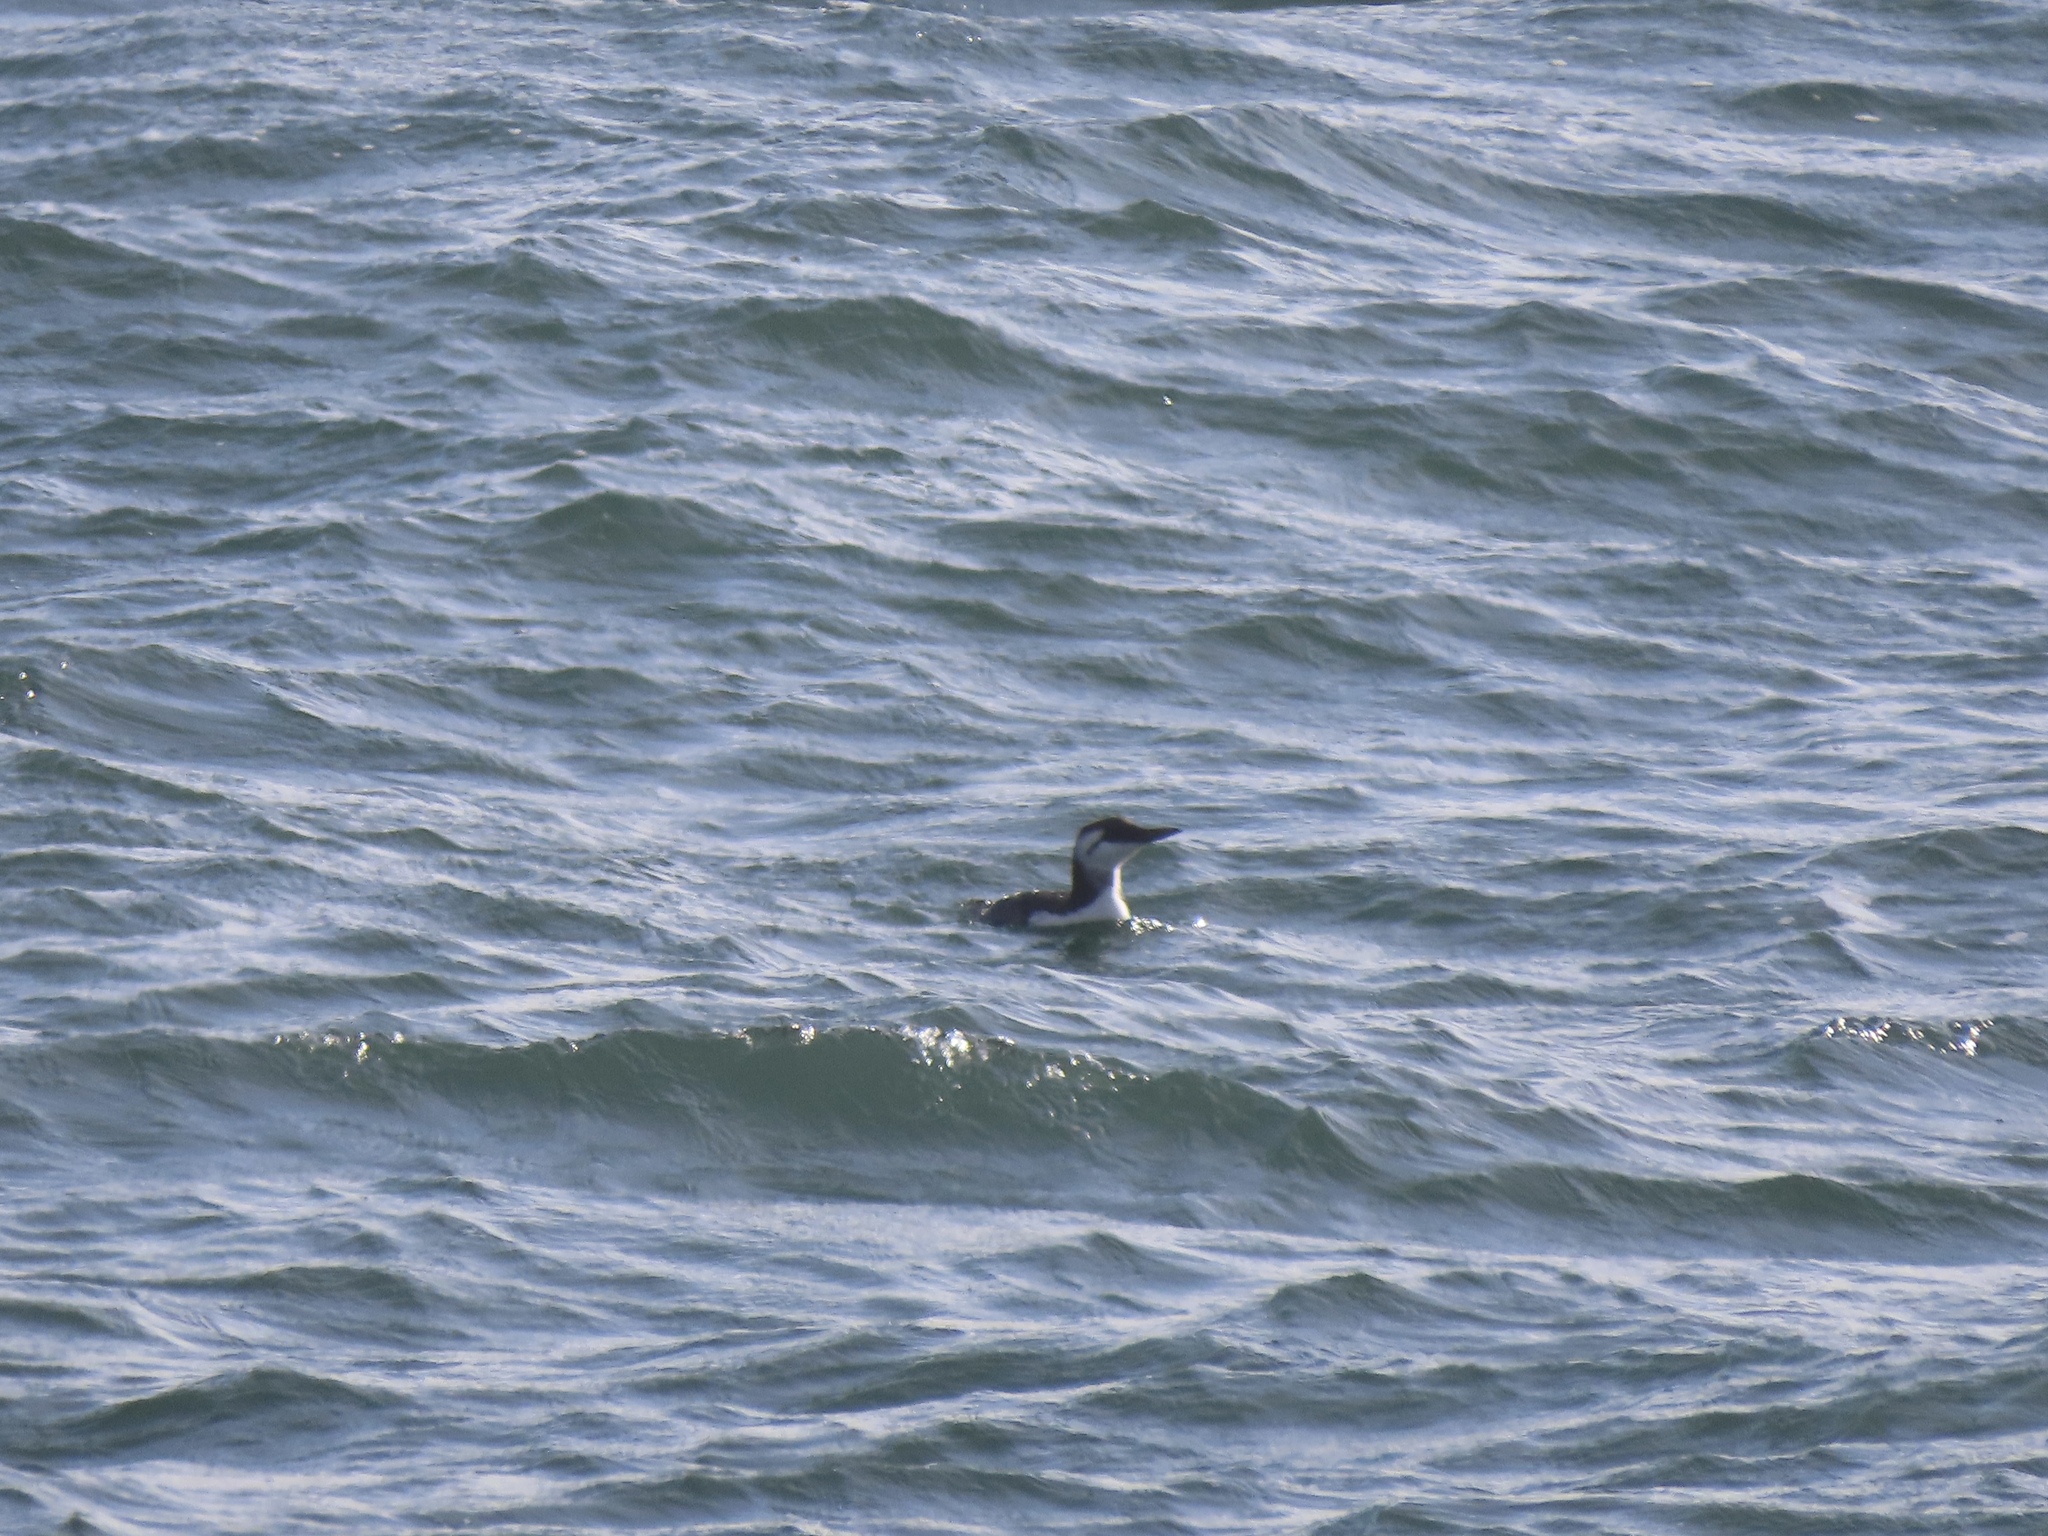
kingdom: Animalia
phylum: Chordata
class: Aves
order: Charadriiformes
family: Alcidae
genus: Uria
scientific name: Uria aalge
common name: Common murre
